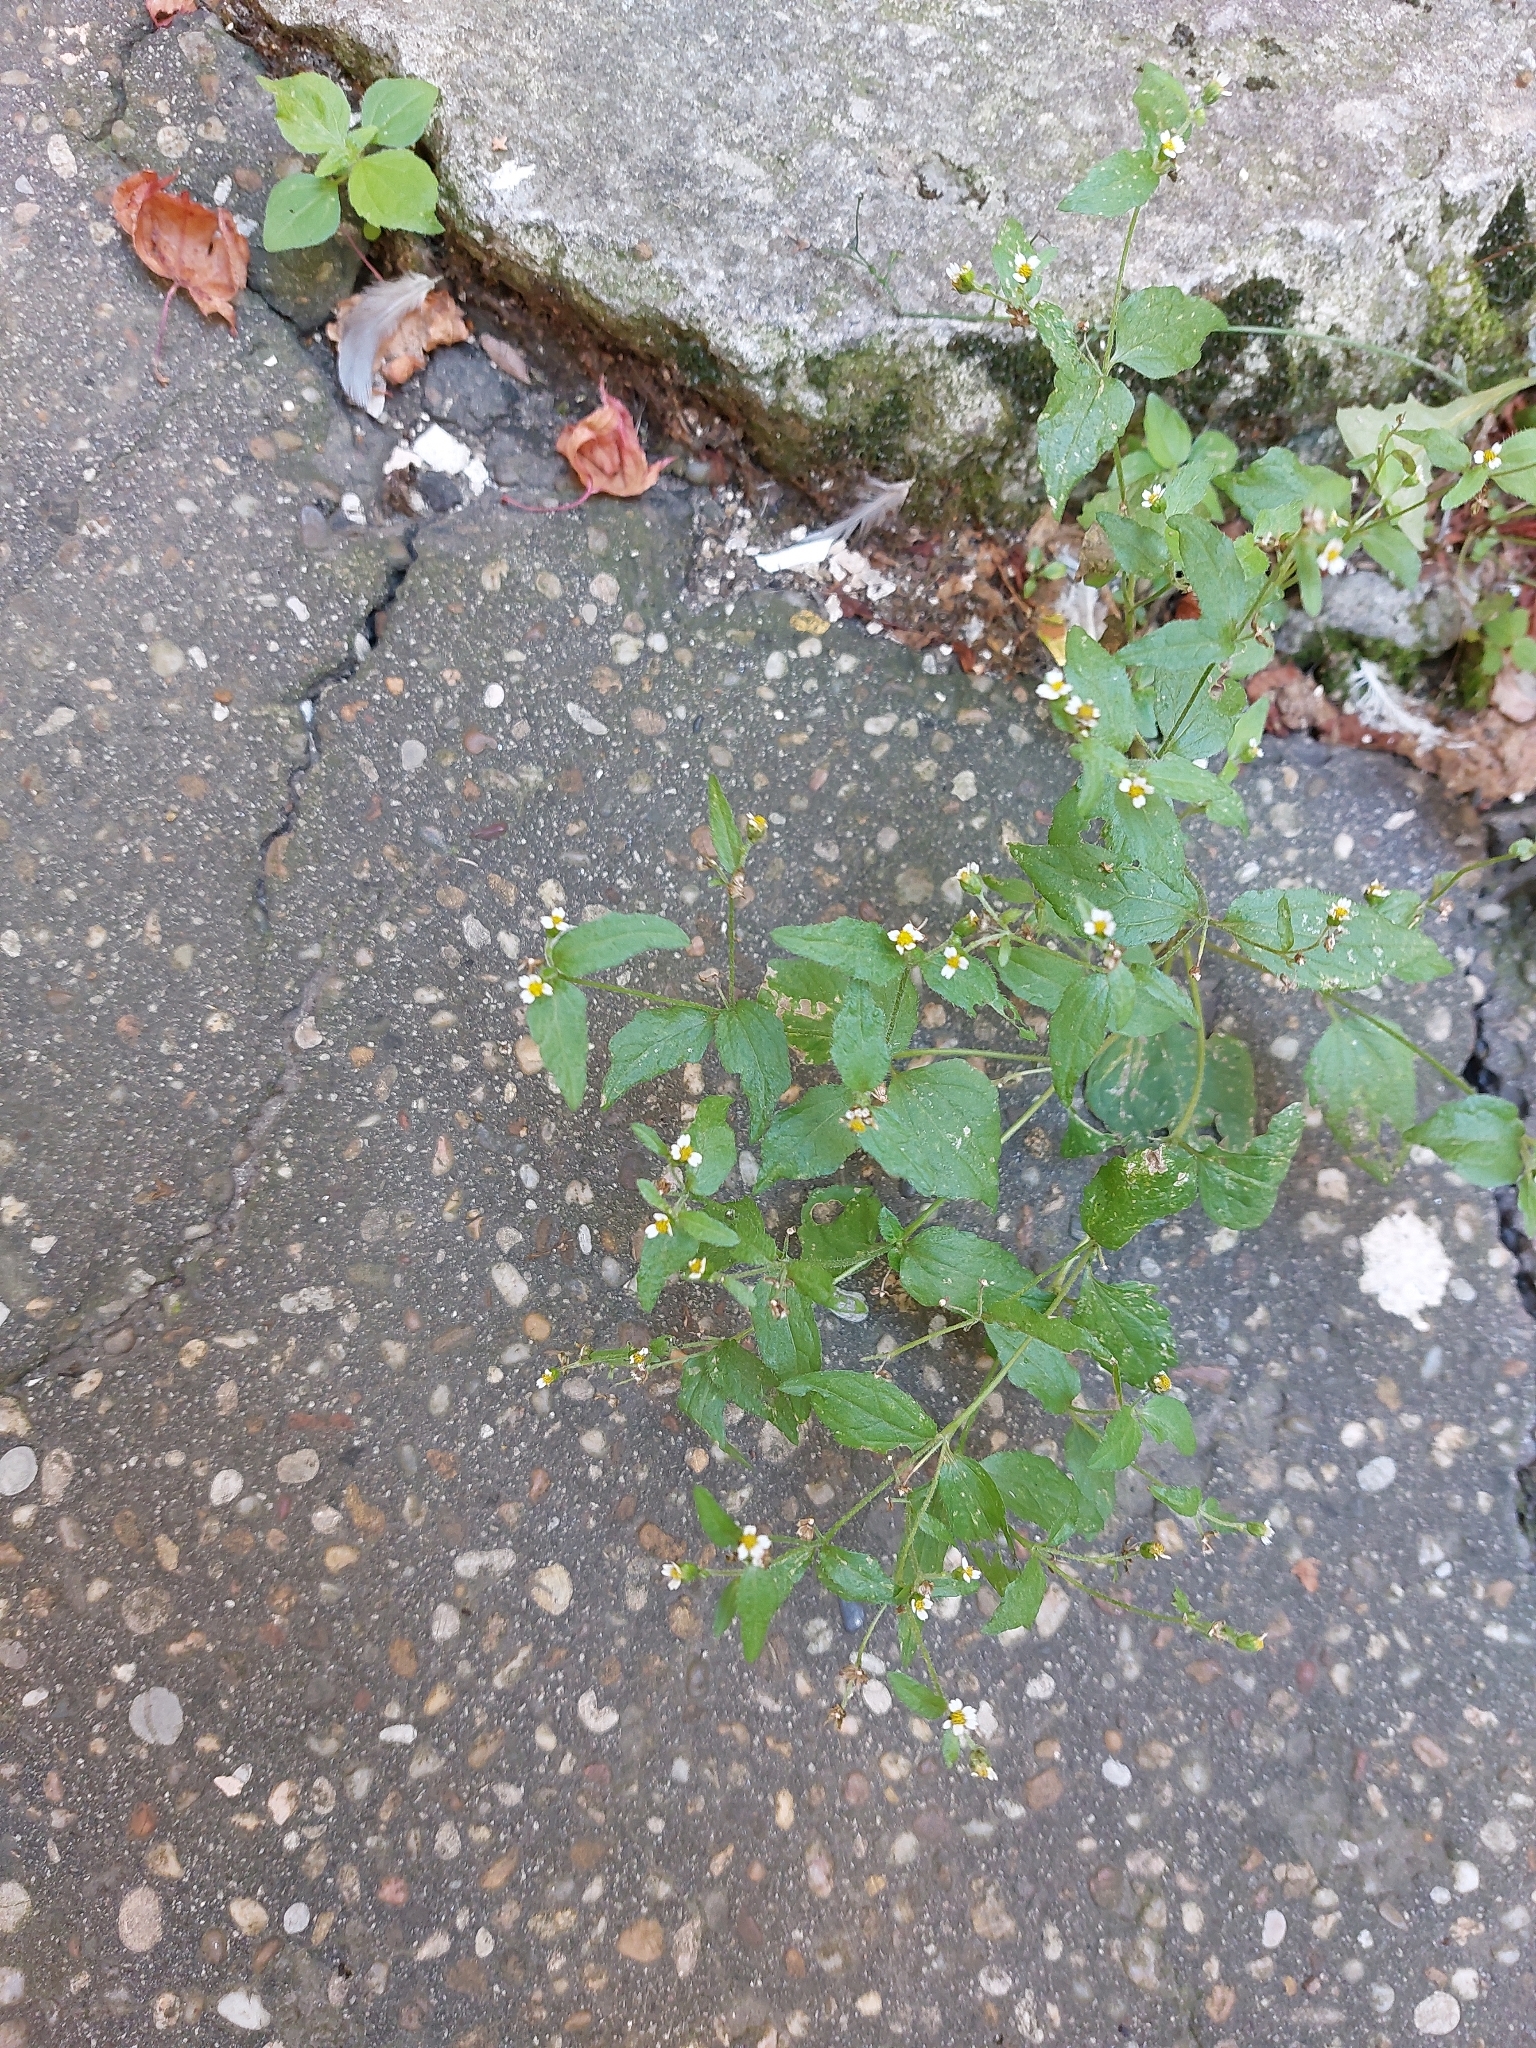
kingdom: Plantae
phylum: Tracheophyta
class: Magnoliopsida
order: Asterales
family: Asteraceae
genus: Galinsoga
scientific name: Galinsoga quadriradiata
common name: Shaggy soldier
